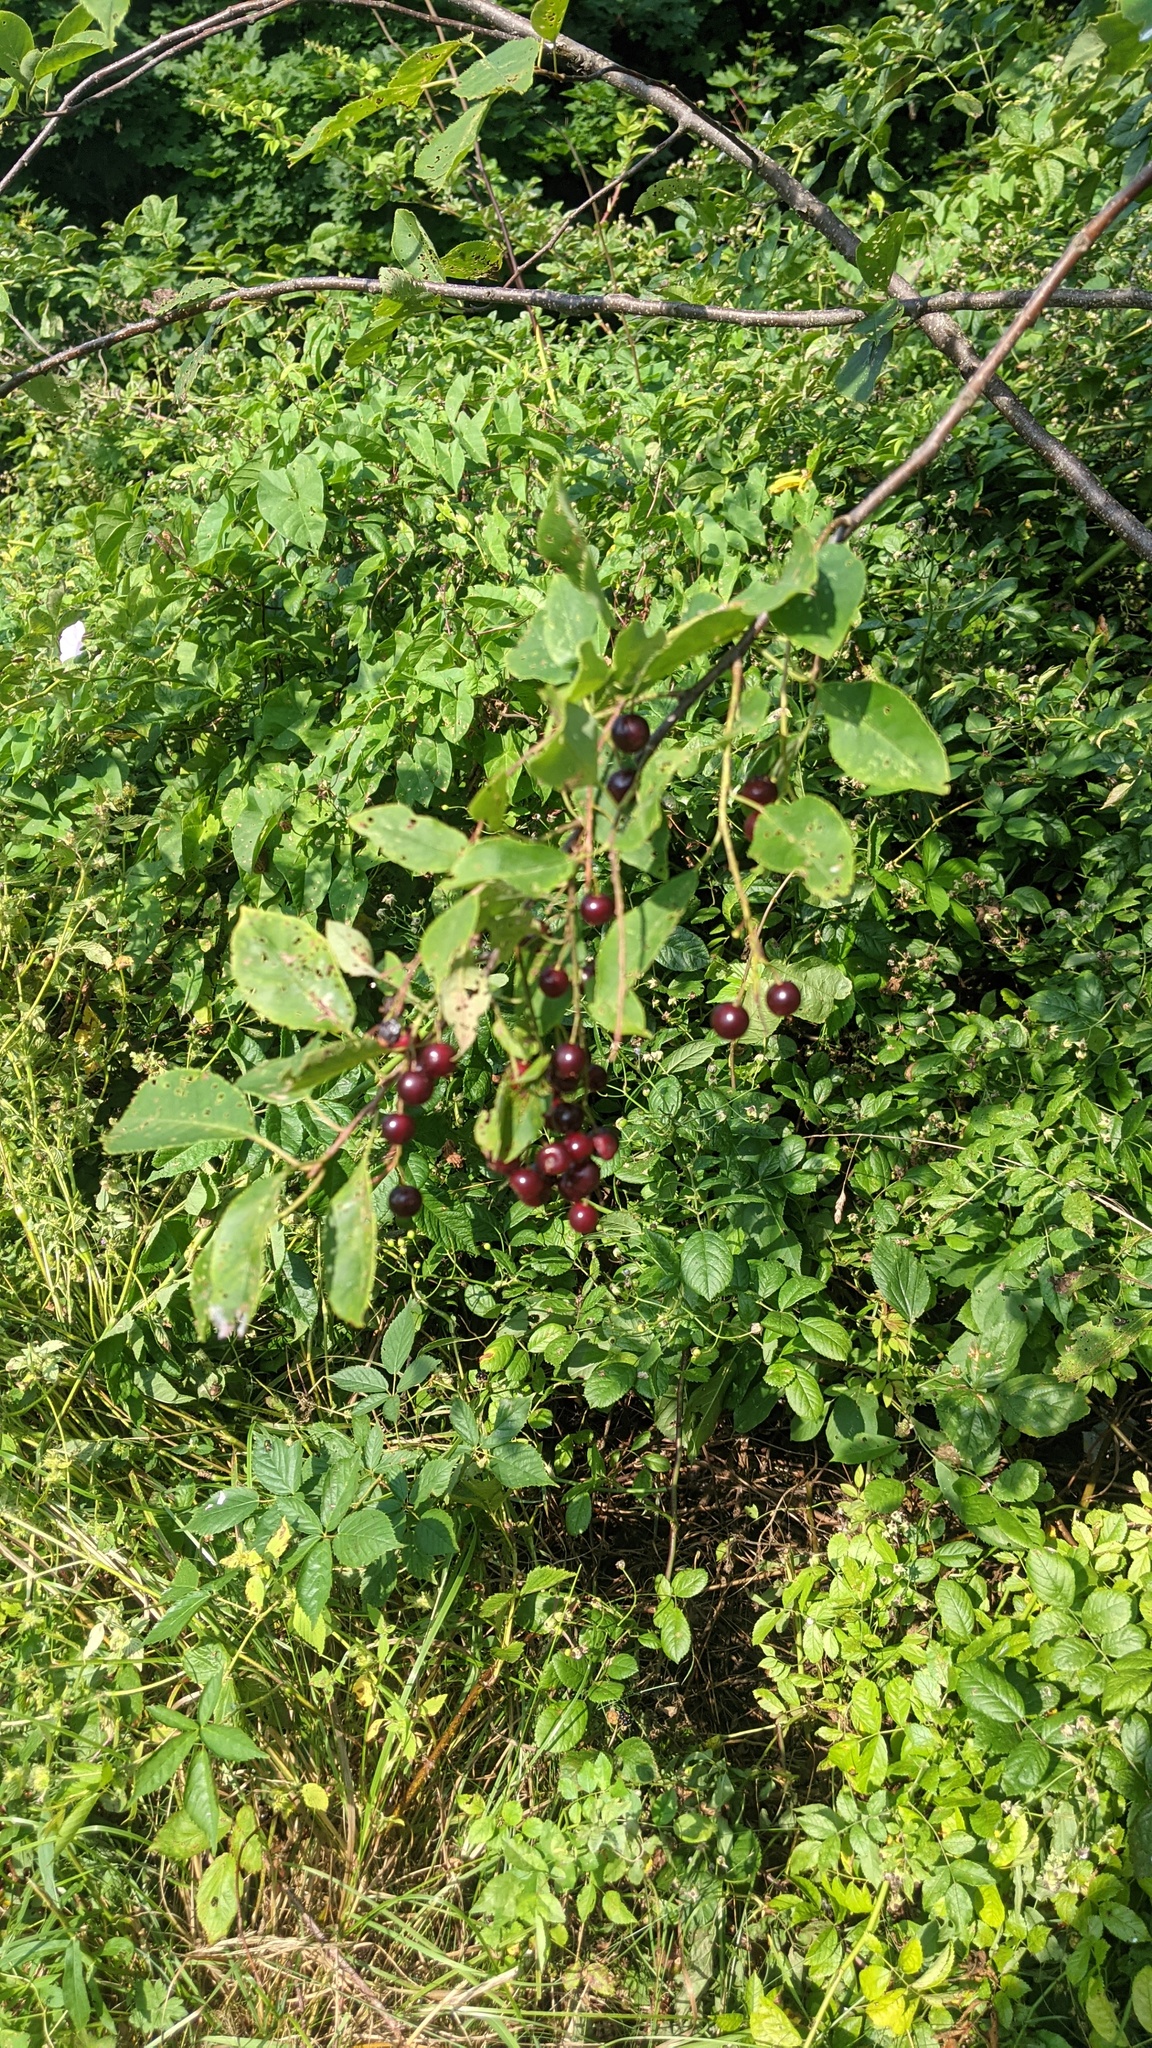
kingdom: Plantae
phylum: Tracheophyta
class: Magnoliopsida
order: Rosales
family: Rosaceae
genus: Prunus
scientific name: Prunus virginiana
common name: Chokecherry
